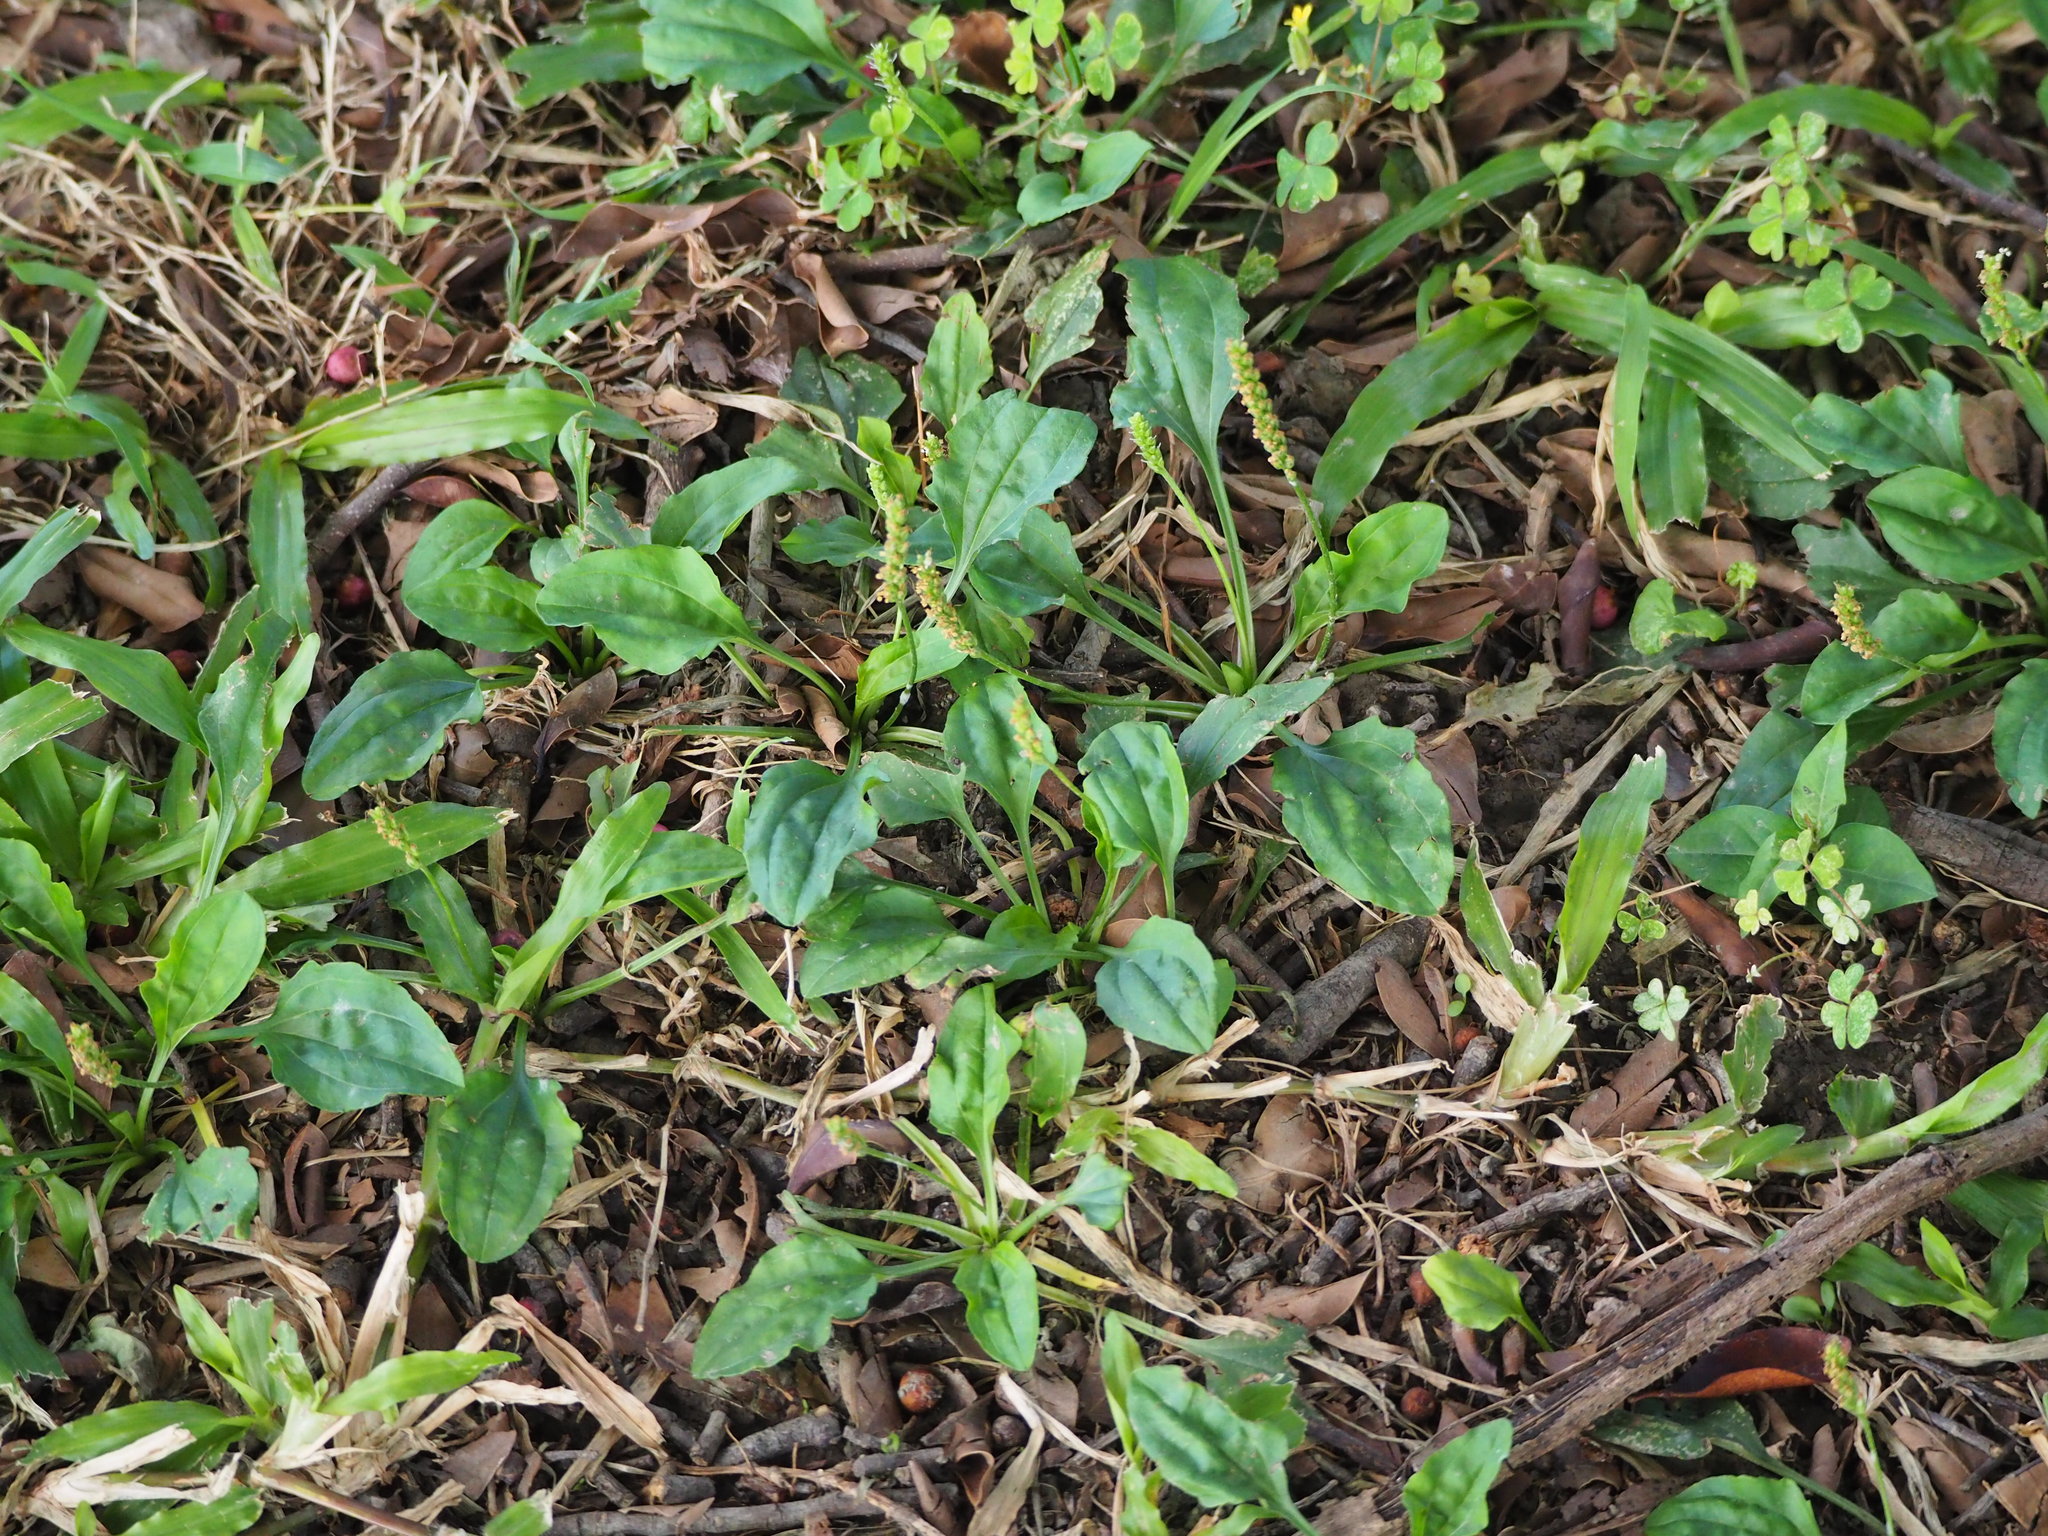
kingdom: Plantae
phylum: Tracheophyta
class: Magnoliopsida
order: Lamiales
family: Plantaginaceae
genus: Plantago
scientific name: Plantago asiatica
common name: Psyllium
